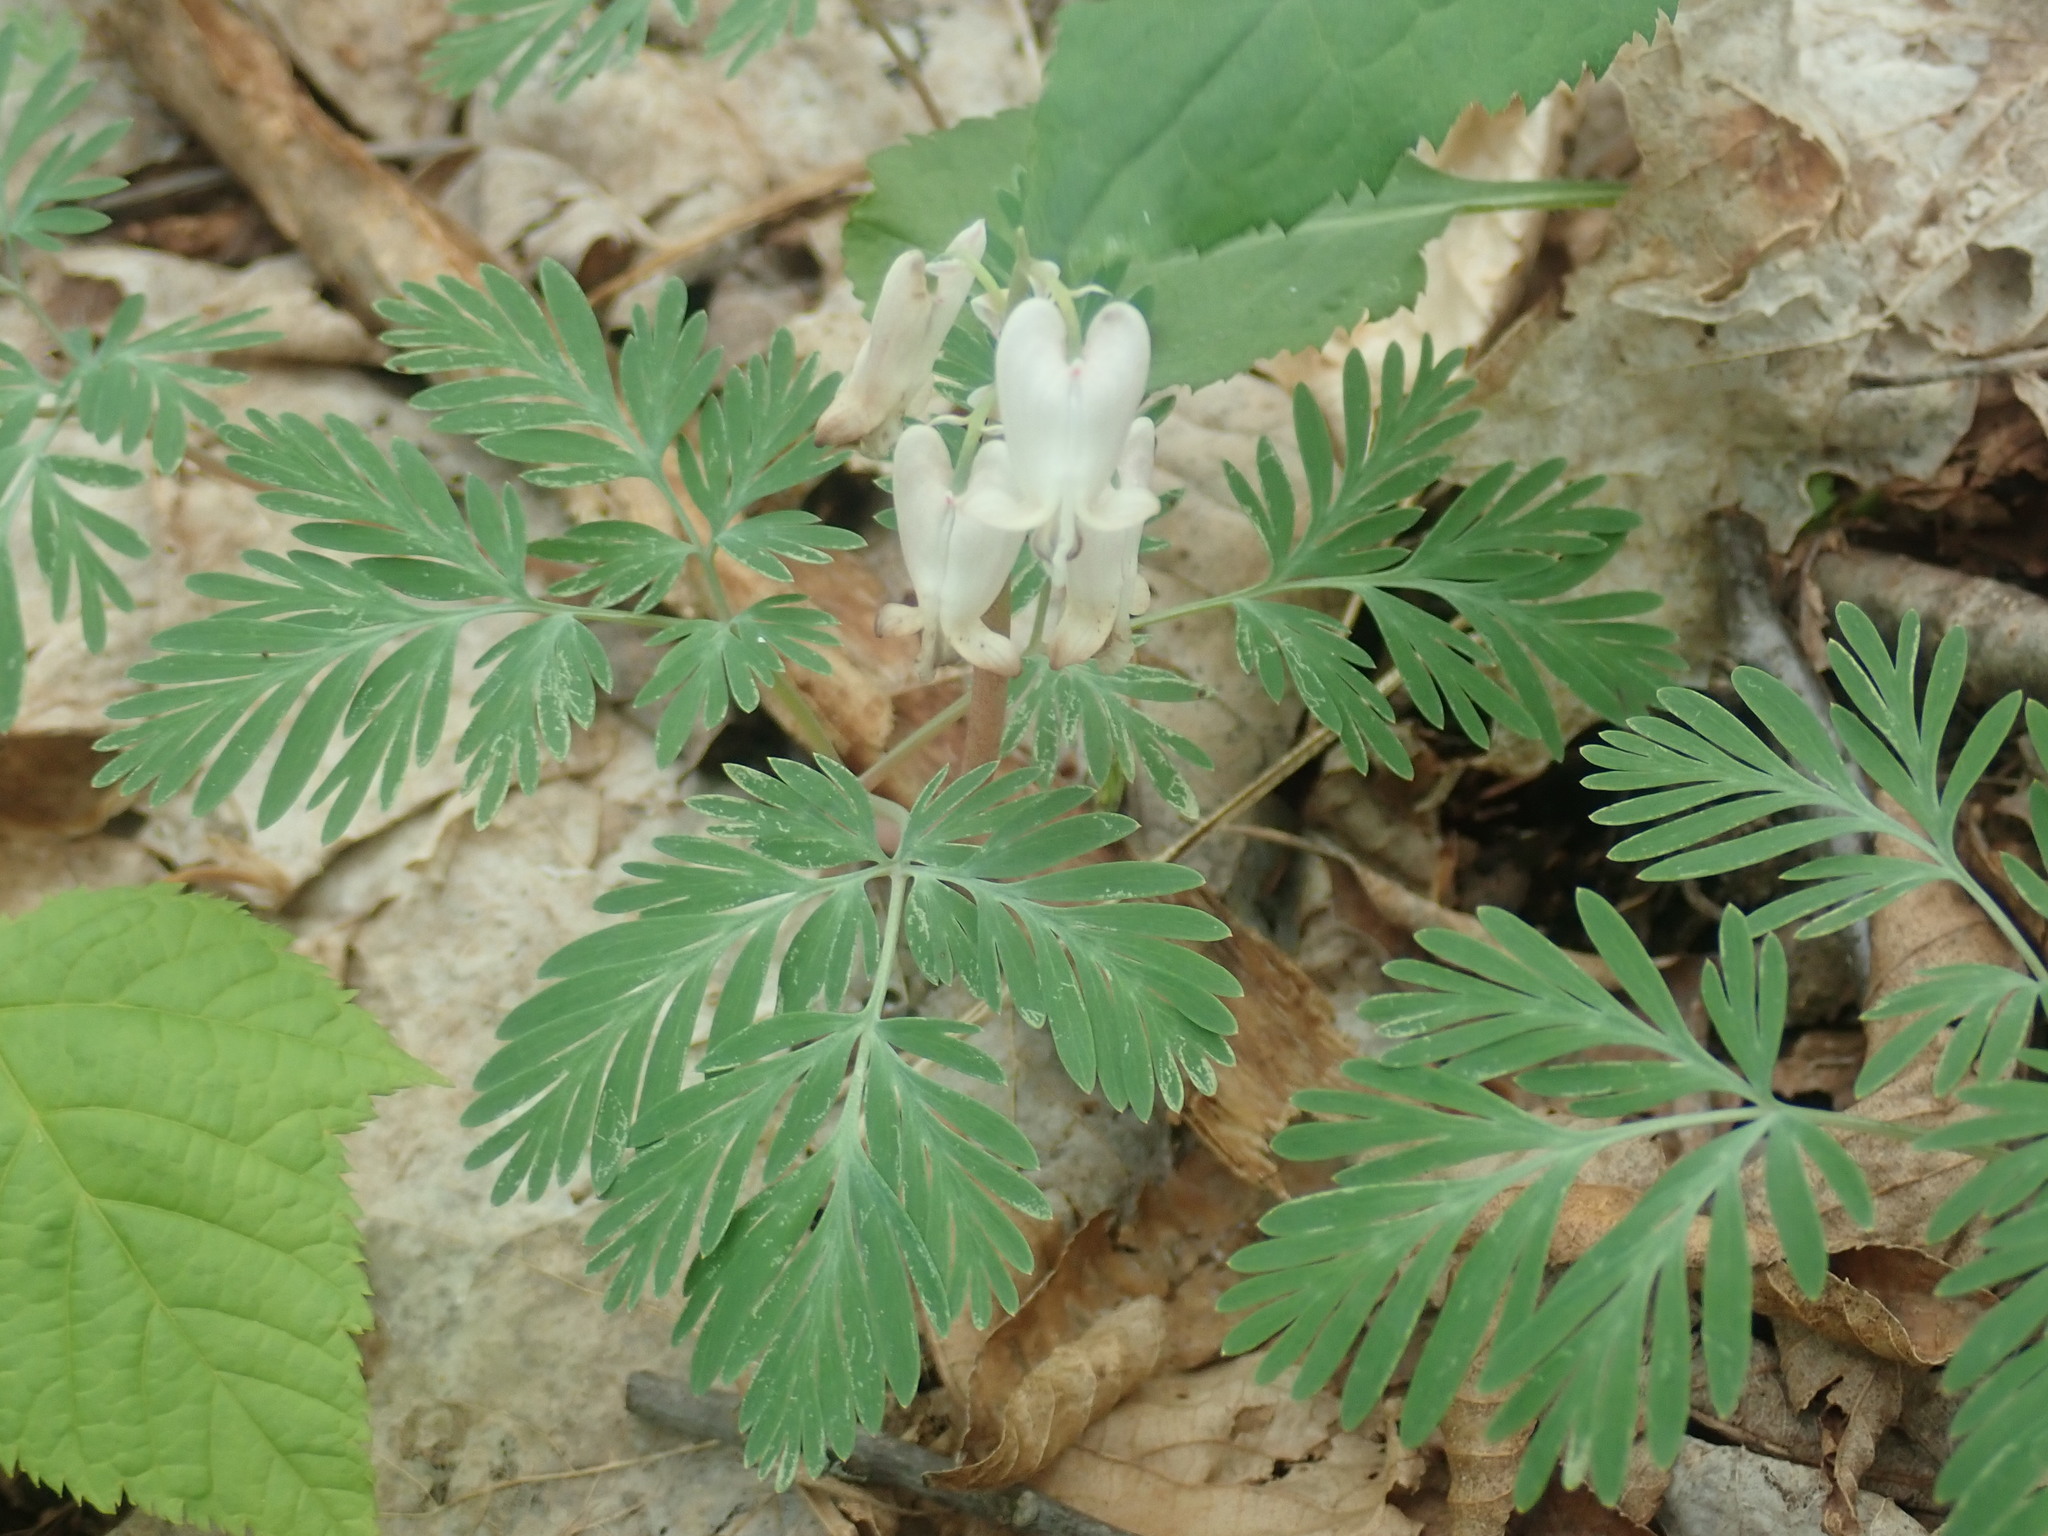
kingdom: Plantae
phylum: Tracheophyta
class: Magnoliopsida
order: Ranunculales
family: Papaveraceae
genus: Dicentra
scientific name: Dicentra canadensis
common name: Squirrel-corn
